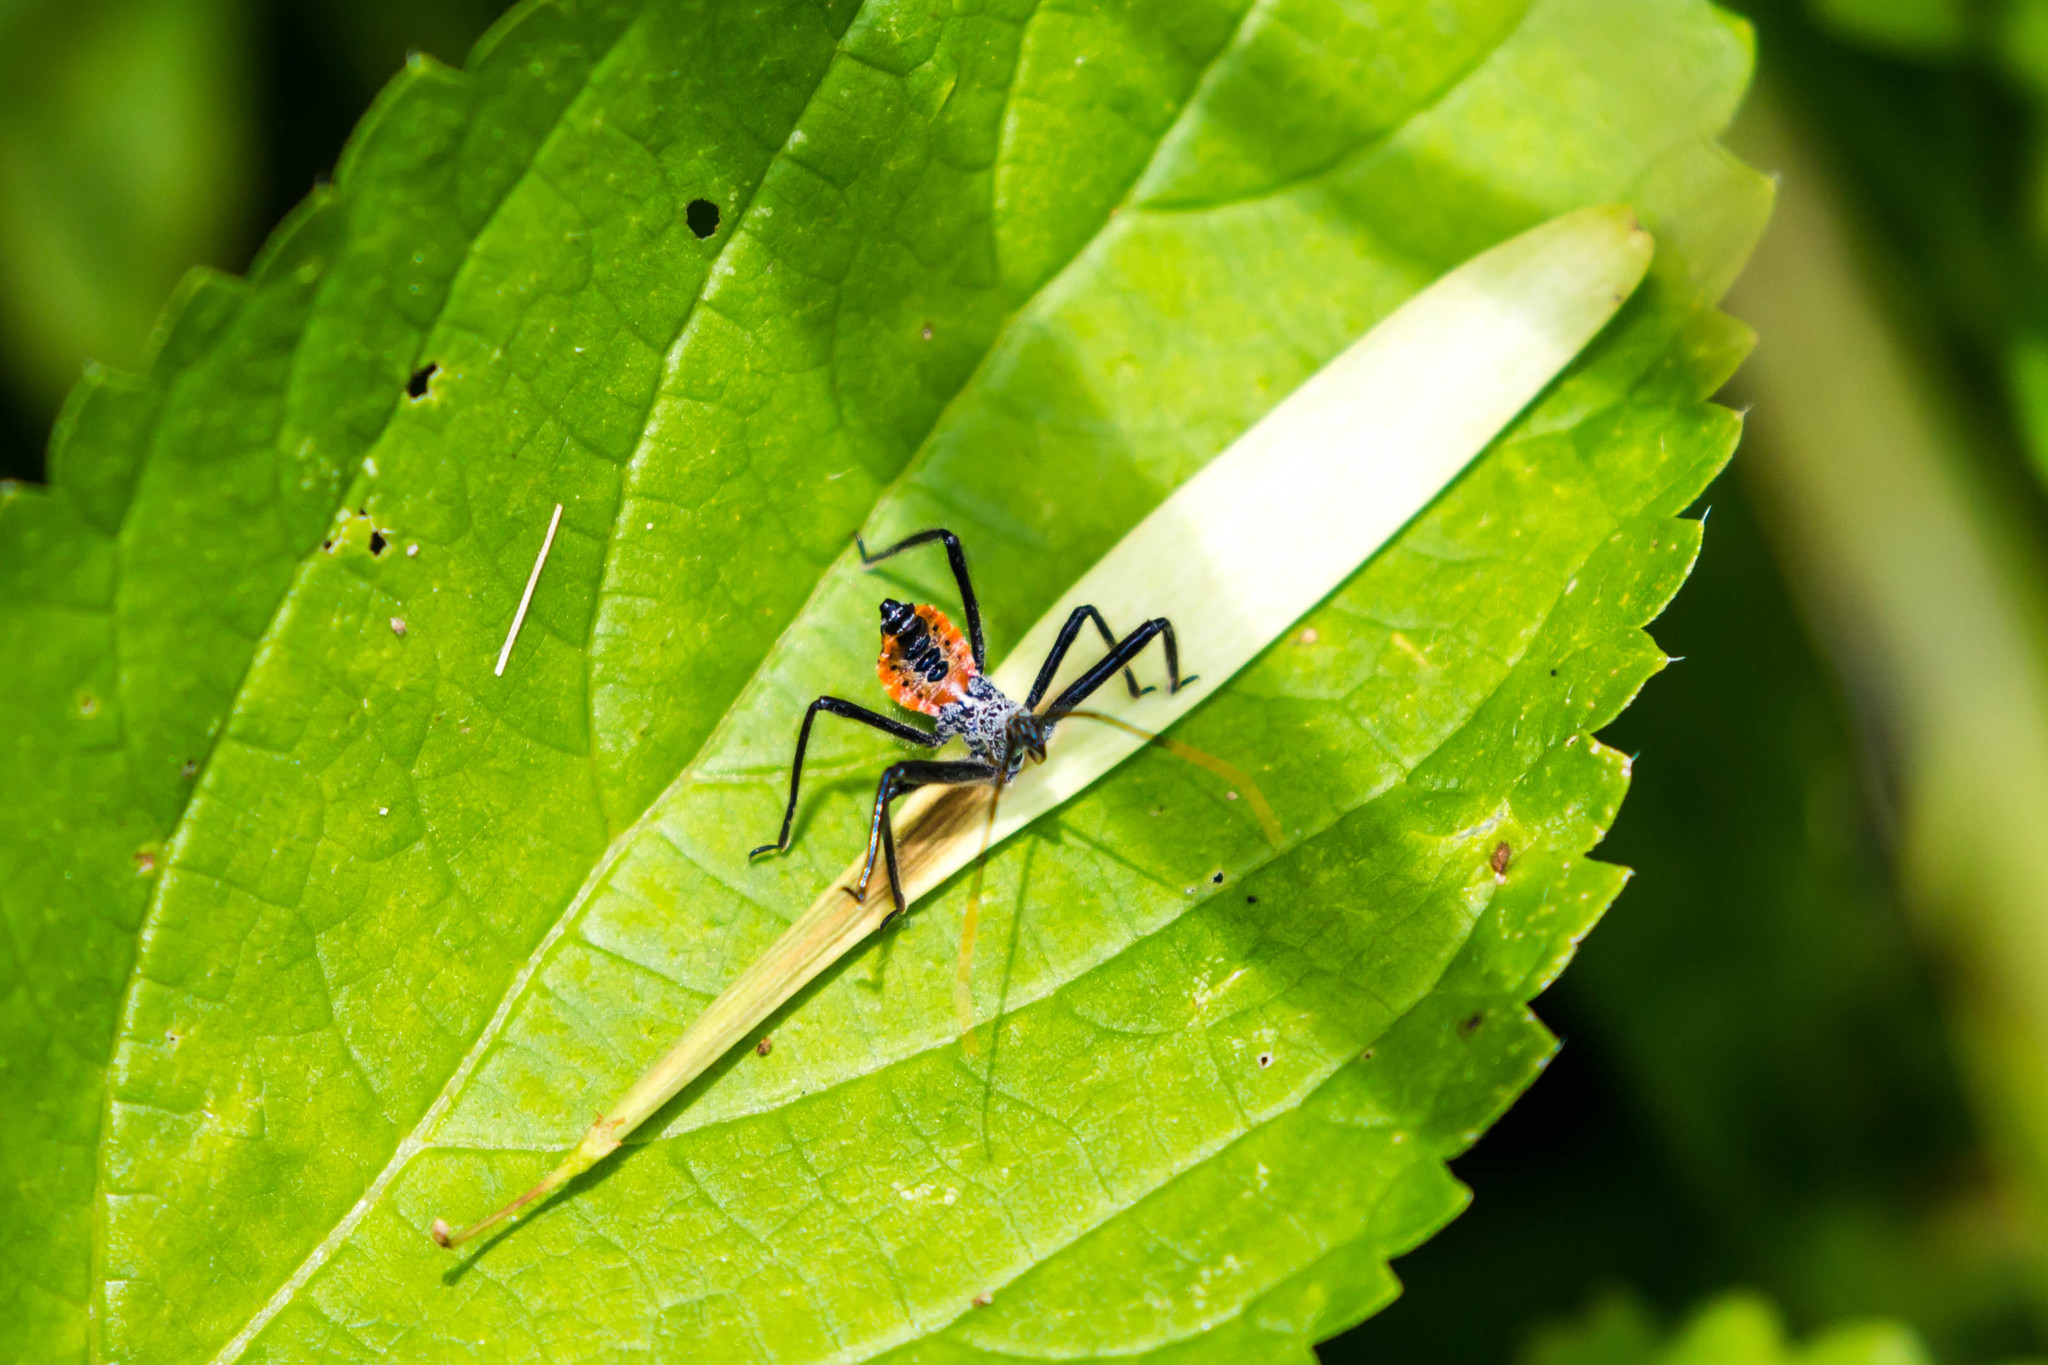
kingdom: Animalia
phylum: Arthropoda
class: Insecta
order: Hemiptera
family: Reduviidae
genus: Arilus
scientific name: Arilus cristatus
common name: North american wheel bug
